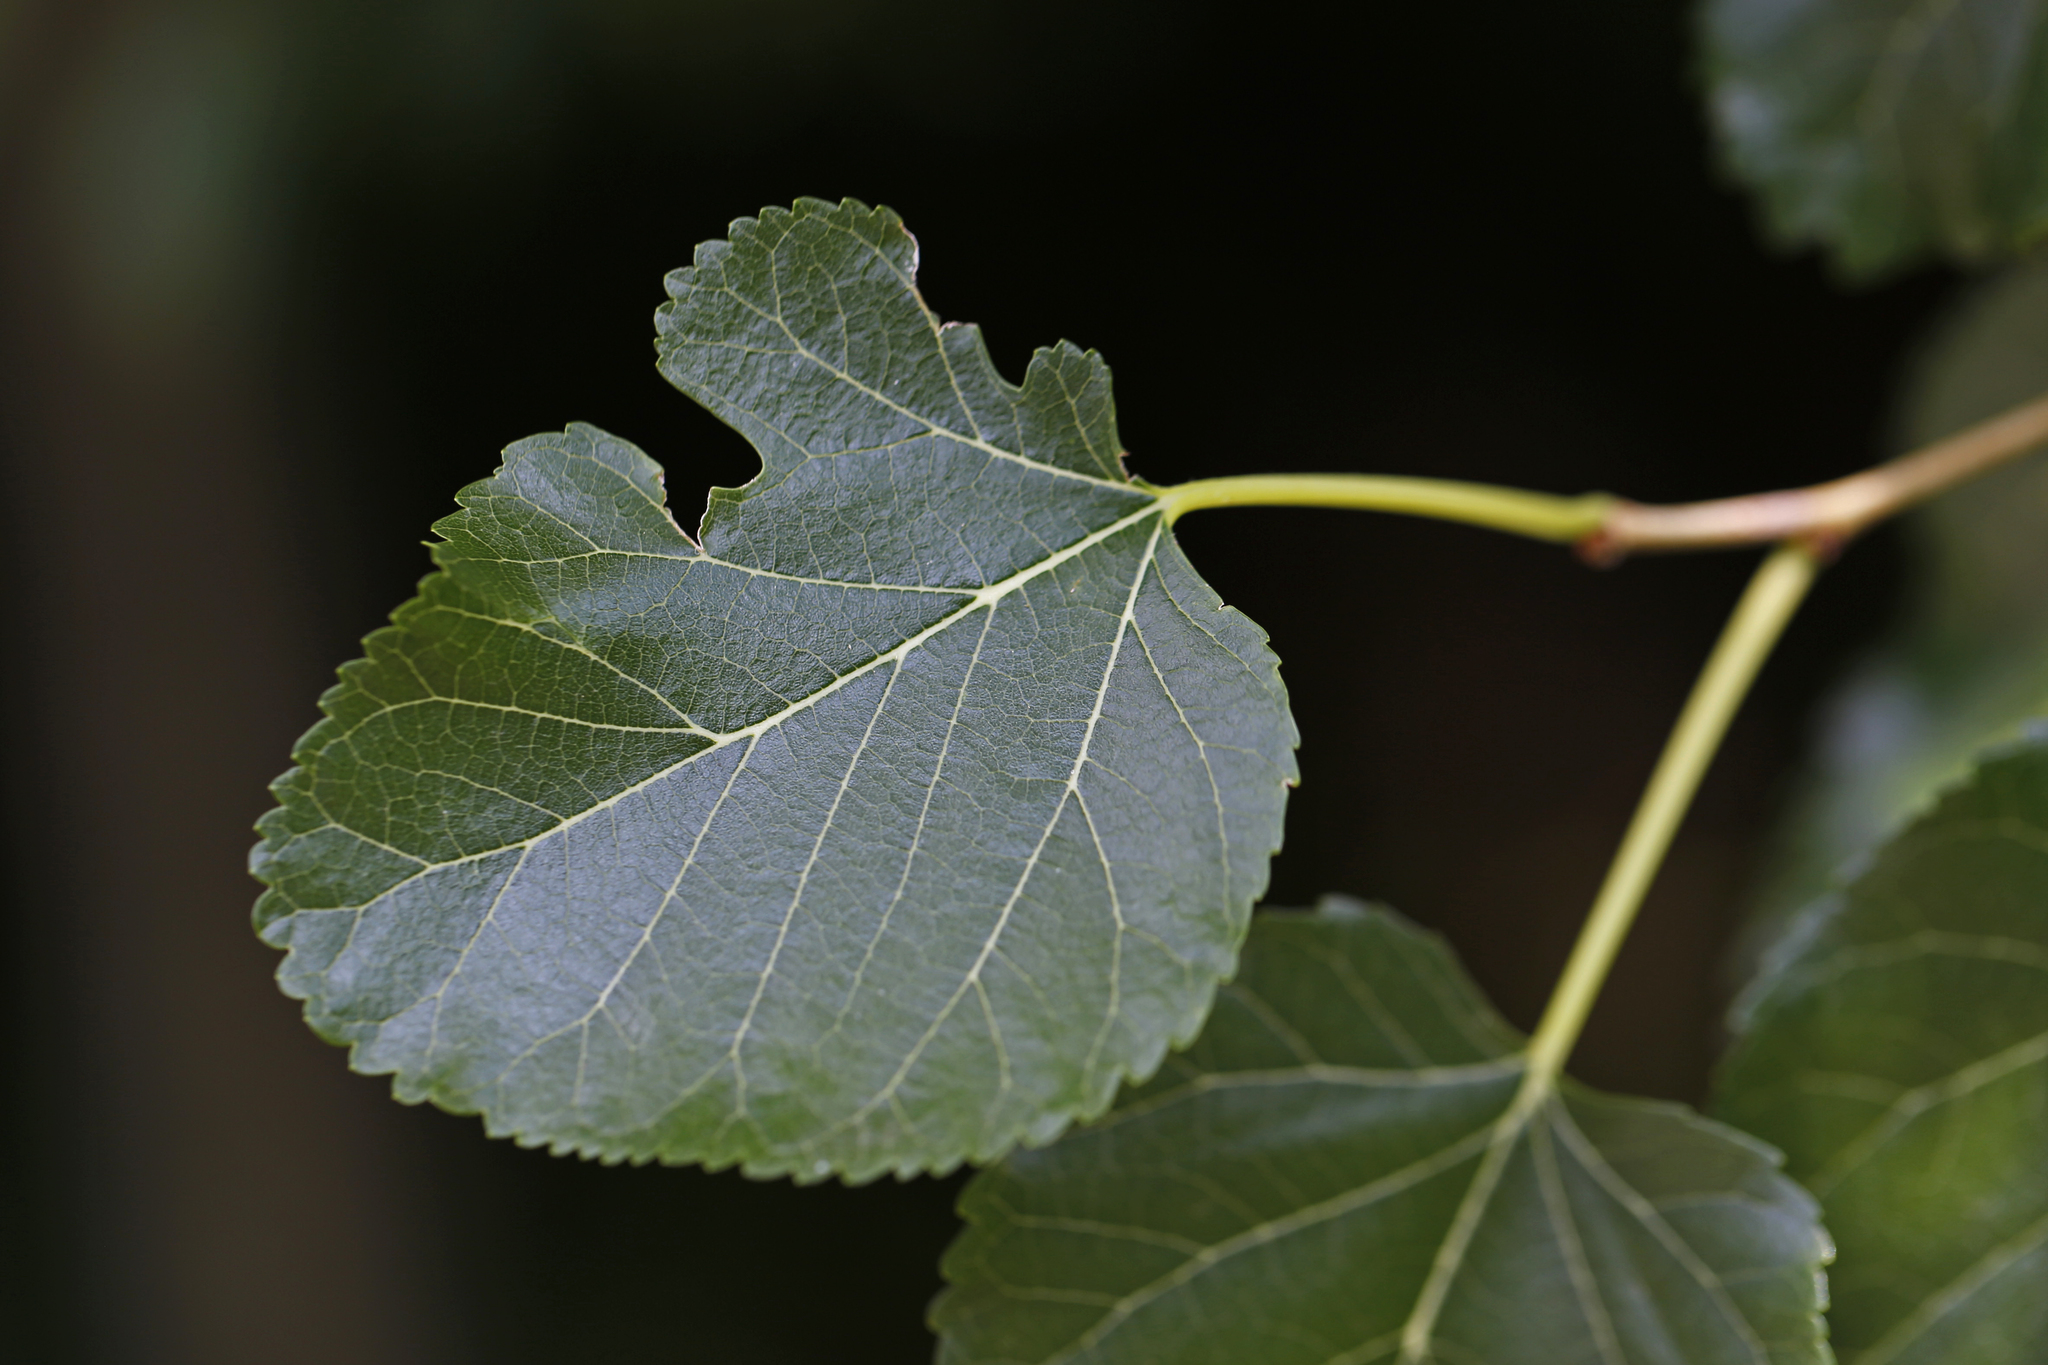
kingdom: Plantae
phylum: Tracheophyta
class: Magnoliopsida
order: Rosales
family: Moraceae
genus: Morus
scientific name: Morus alba
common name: White mulberry
